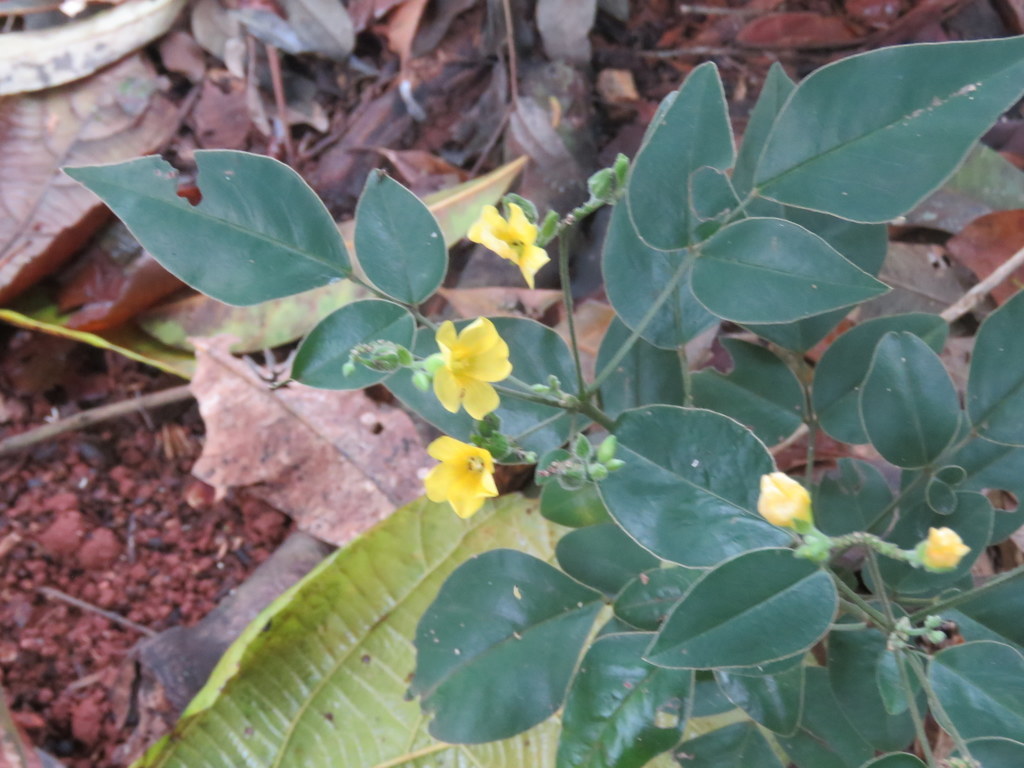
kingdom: Plantae
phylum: Tracheophyta
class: Magnoliopsida
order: Oxalidales
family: Oxalidaceae
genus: Oxalis
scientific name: Oxalis rhombeo-ovata
